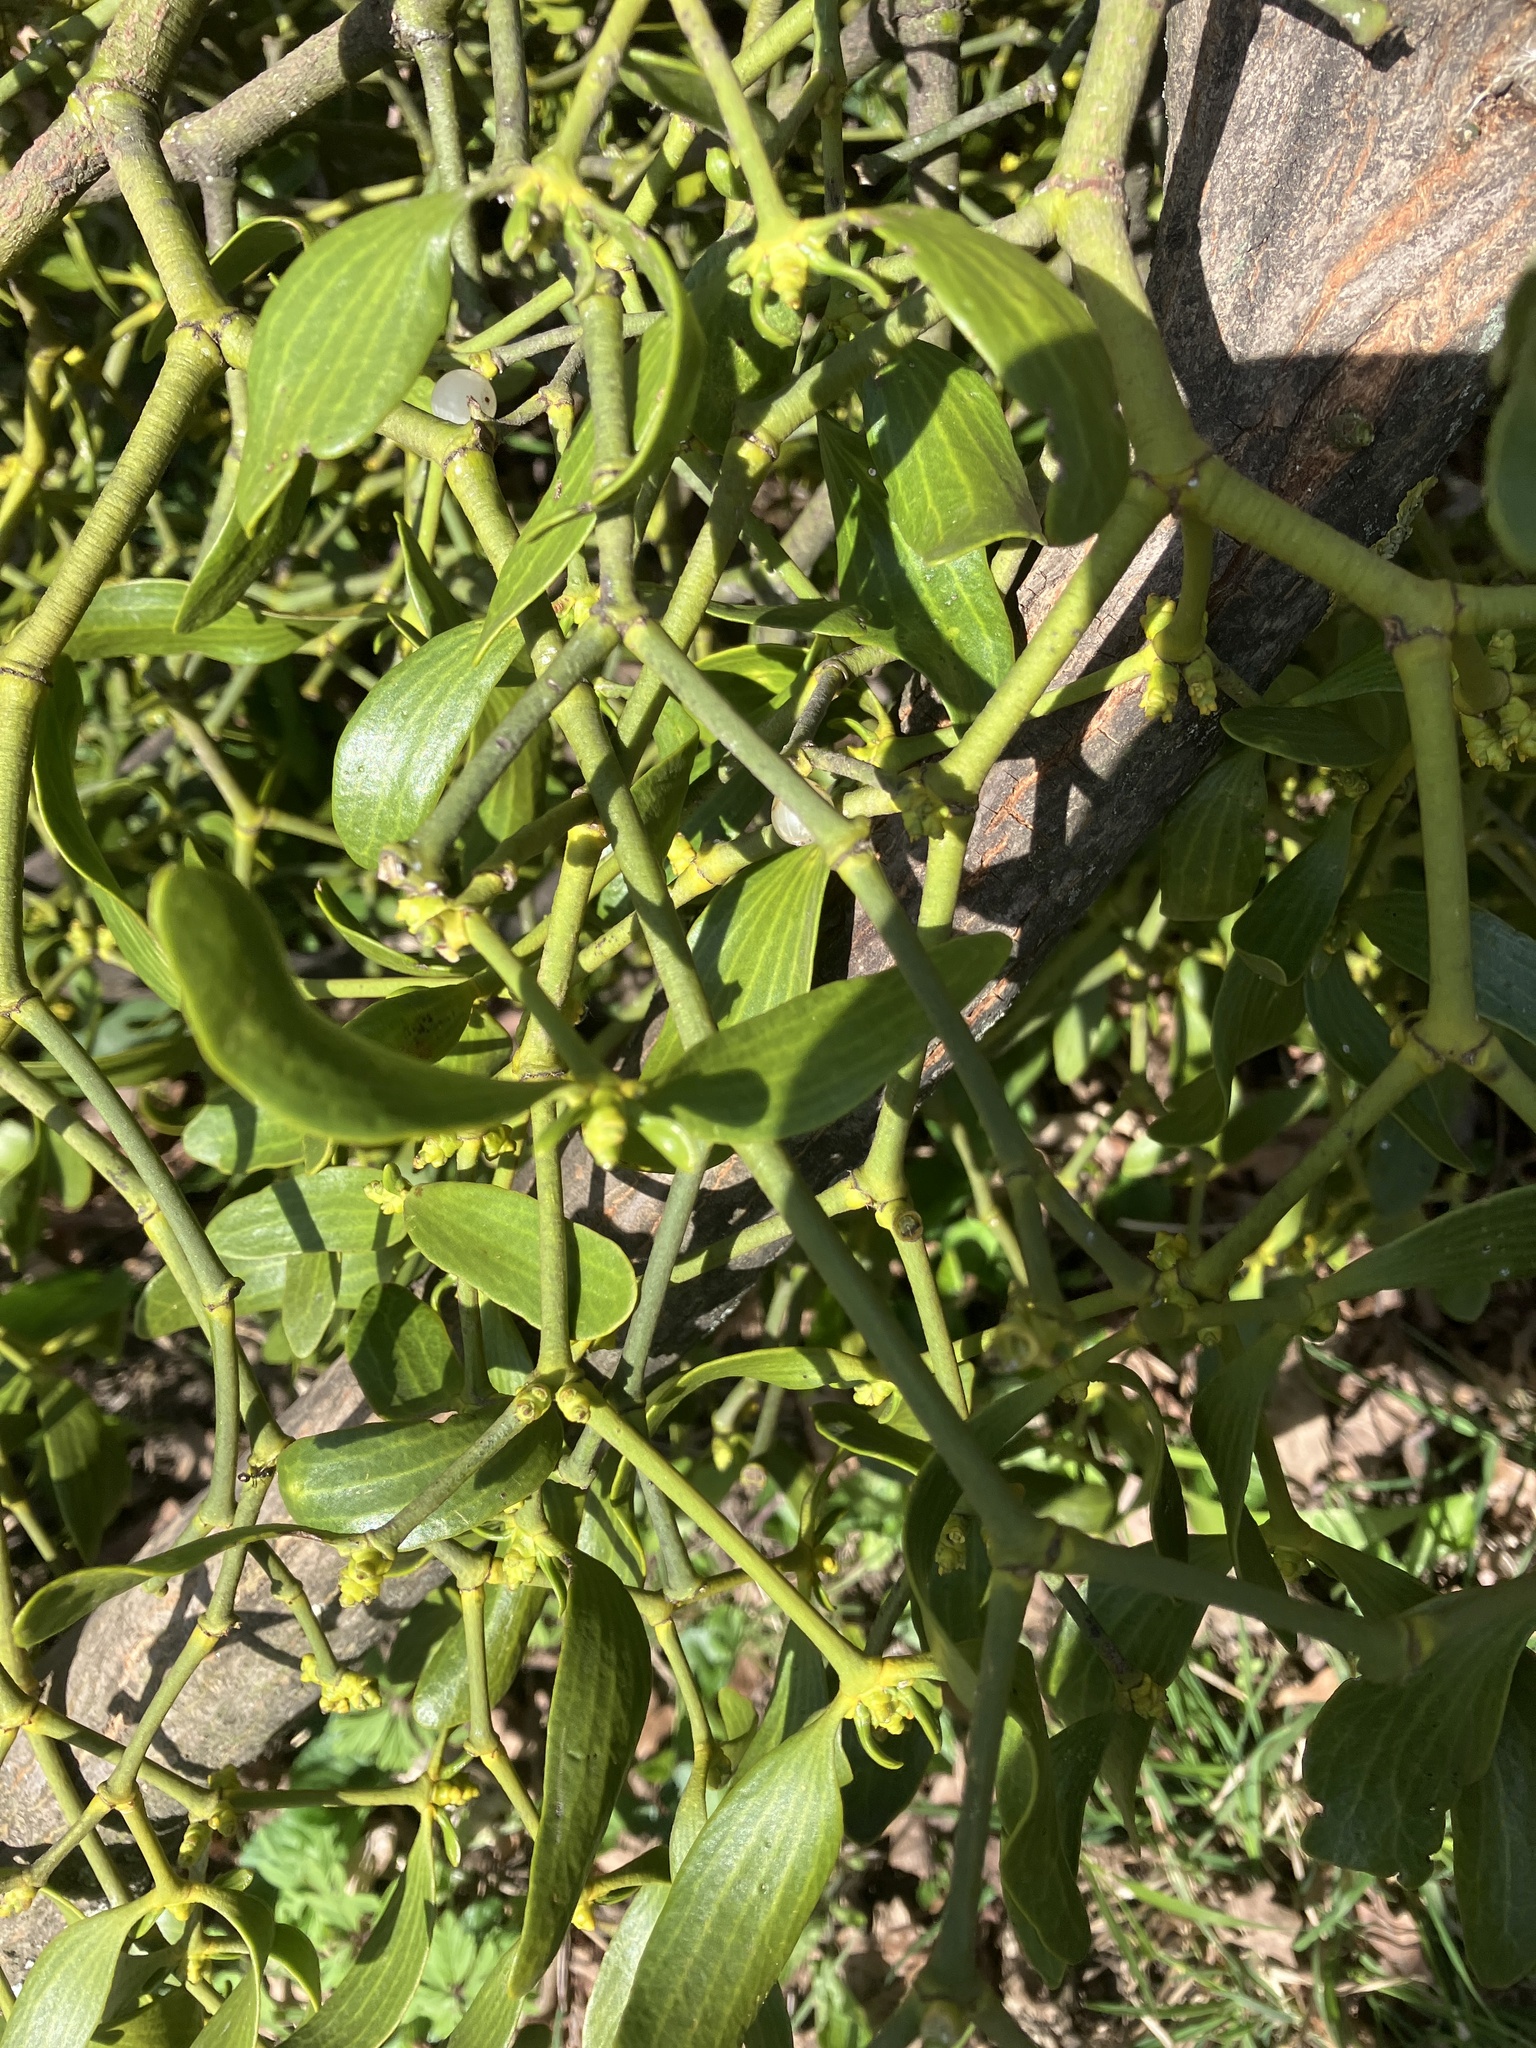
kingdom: Plantae
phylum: Tracheophyta
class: Magnoliopsida
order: Santalales
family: Viscaceae
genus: Viscum
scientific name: Viscum album
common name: Mistletoe
